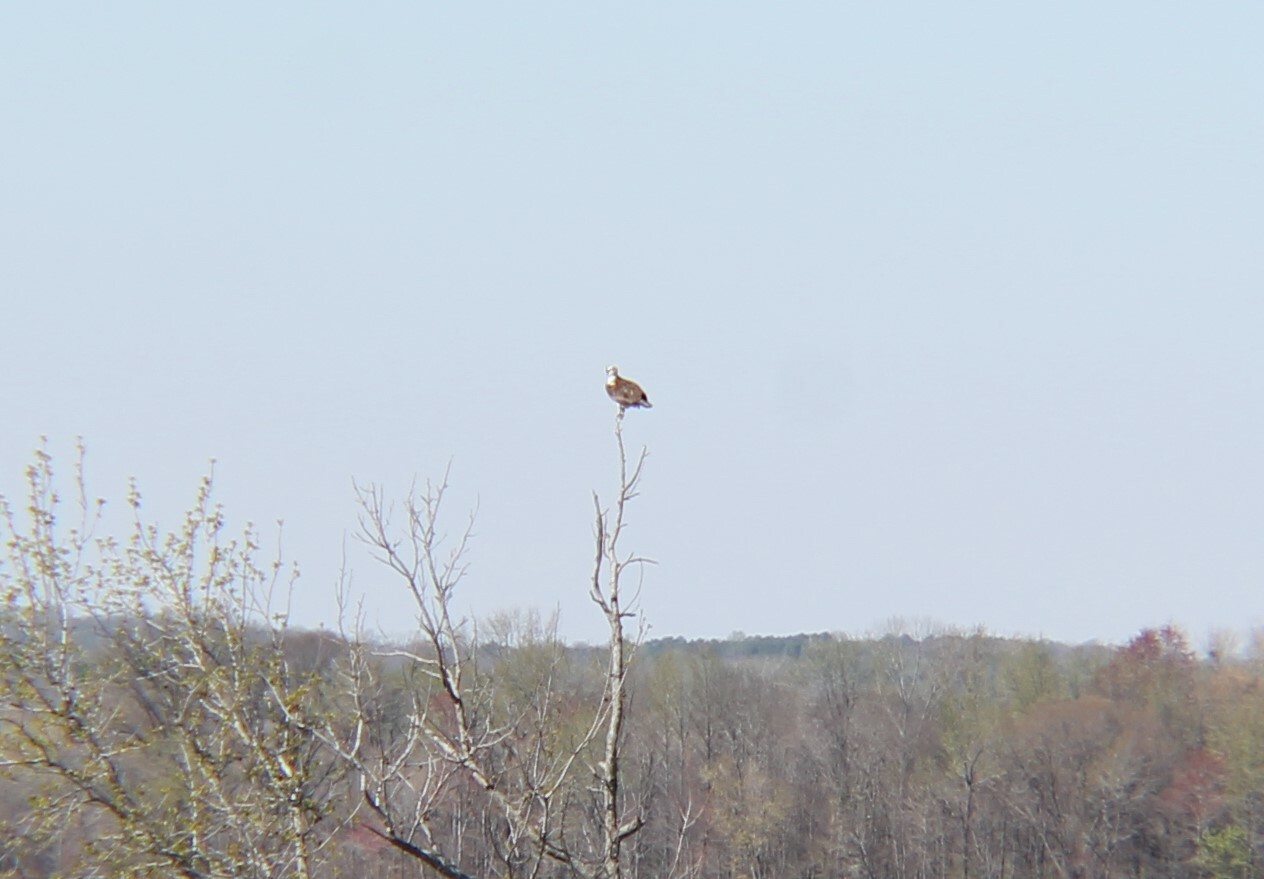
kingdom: Animalia
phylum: Chordata
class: Aves
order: Accipitriformes
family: Pandionidae
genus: Pandion
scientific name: Pandion haliaetus
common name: Osprey
